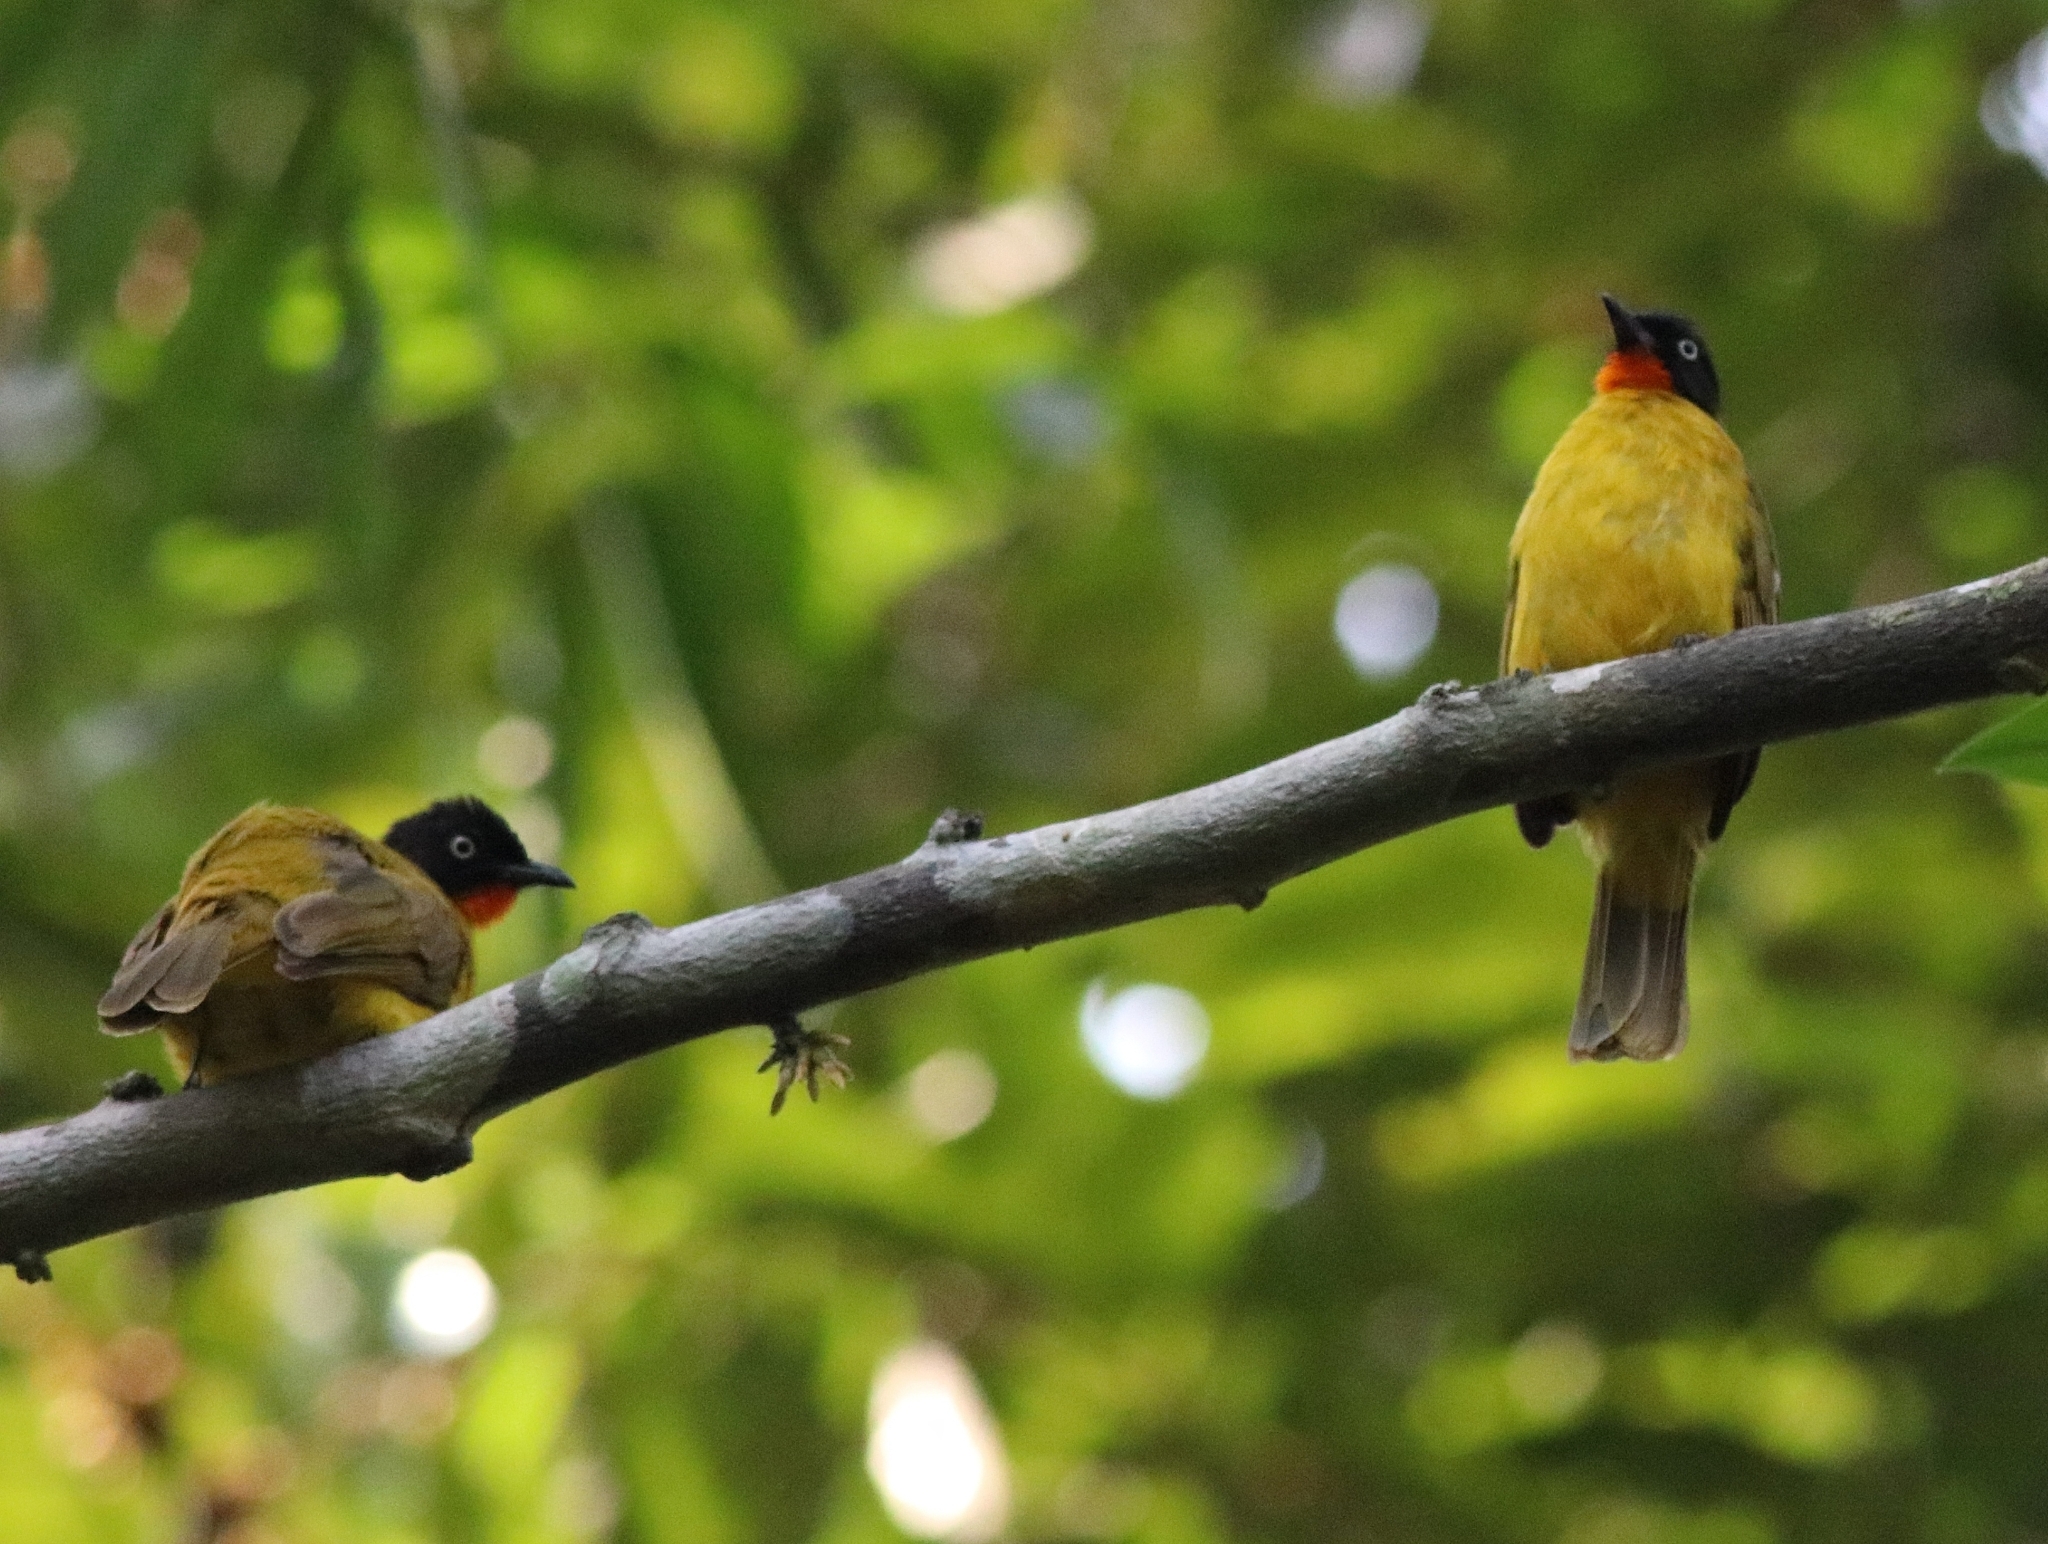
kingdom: Animalia
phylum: Chordata
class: Aves
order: Passeriformes
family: Pycnonotidae
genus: Pycnonotus
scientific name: Pycnonotus gularis
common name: Flame-throated bulbul
